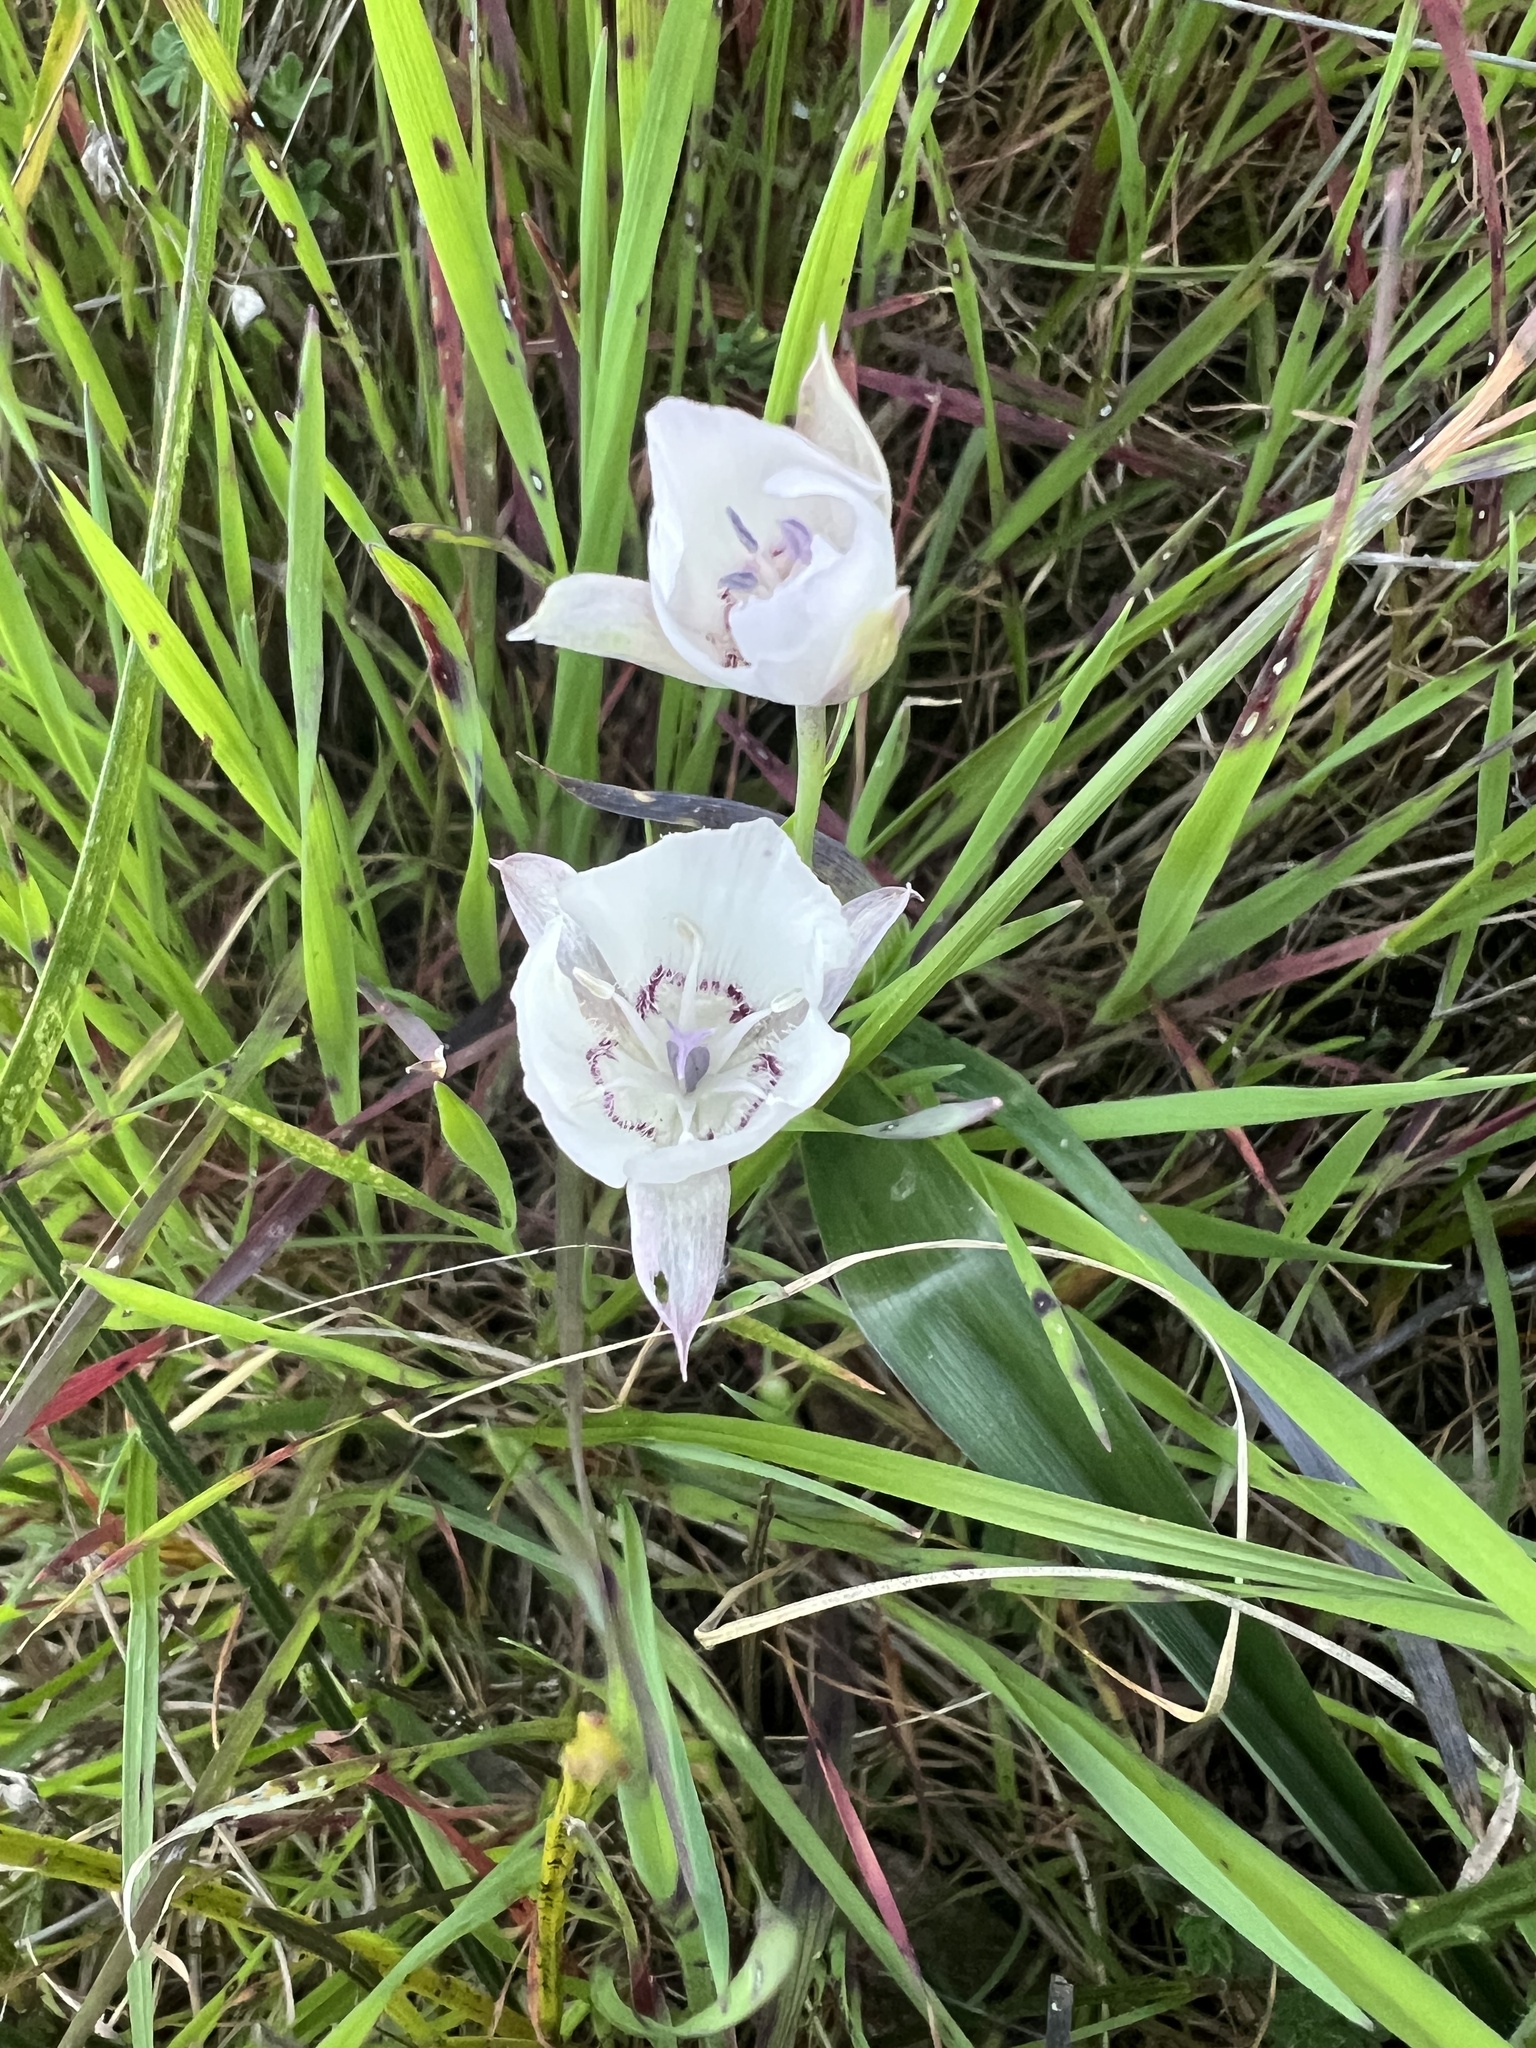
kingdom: Plantae
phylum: Tracheophyta
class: Liliopsida
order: Liliales
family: Liliaceae
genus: Calochortus
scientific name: Calochortus umbellatus
